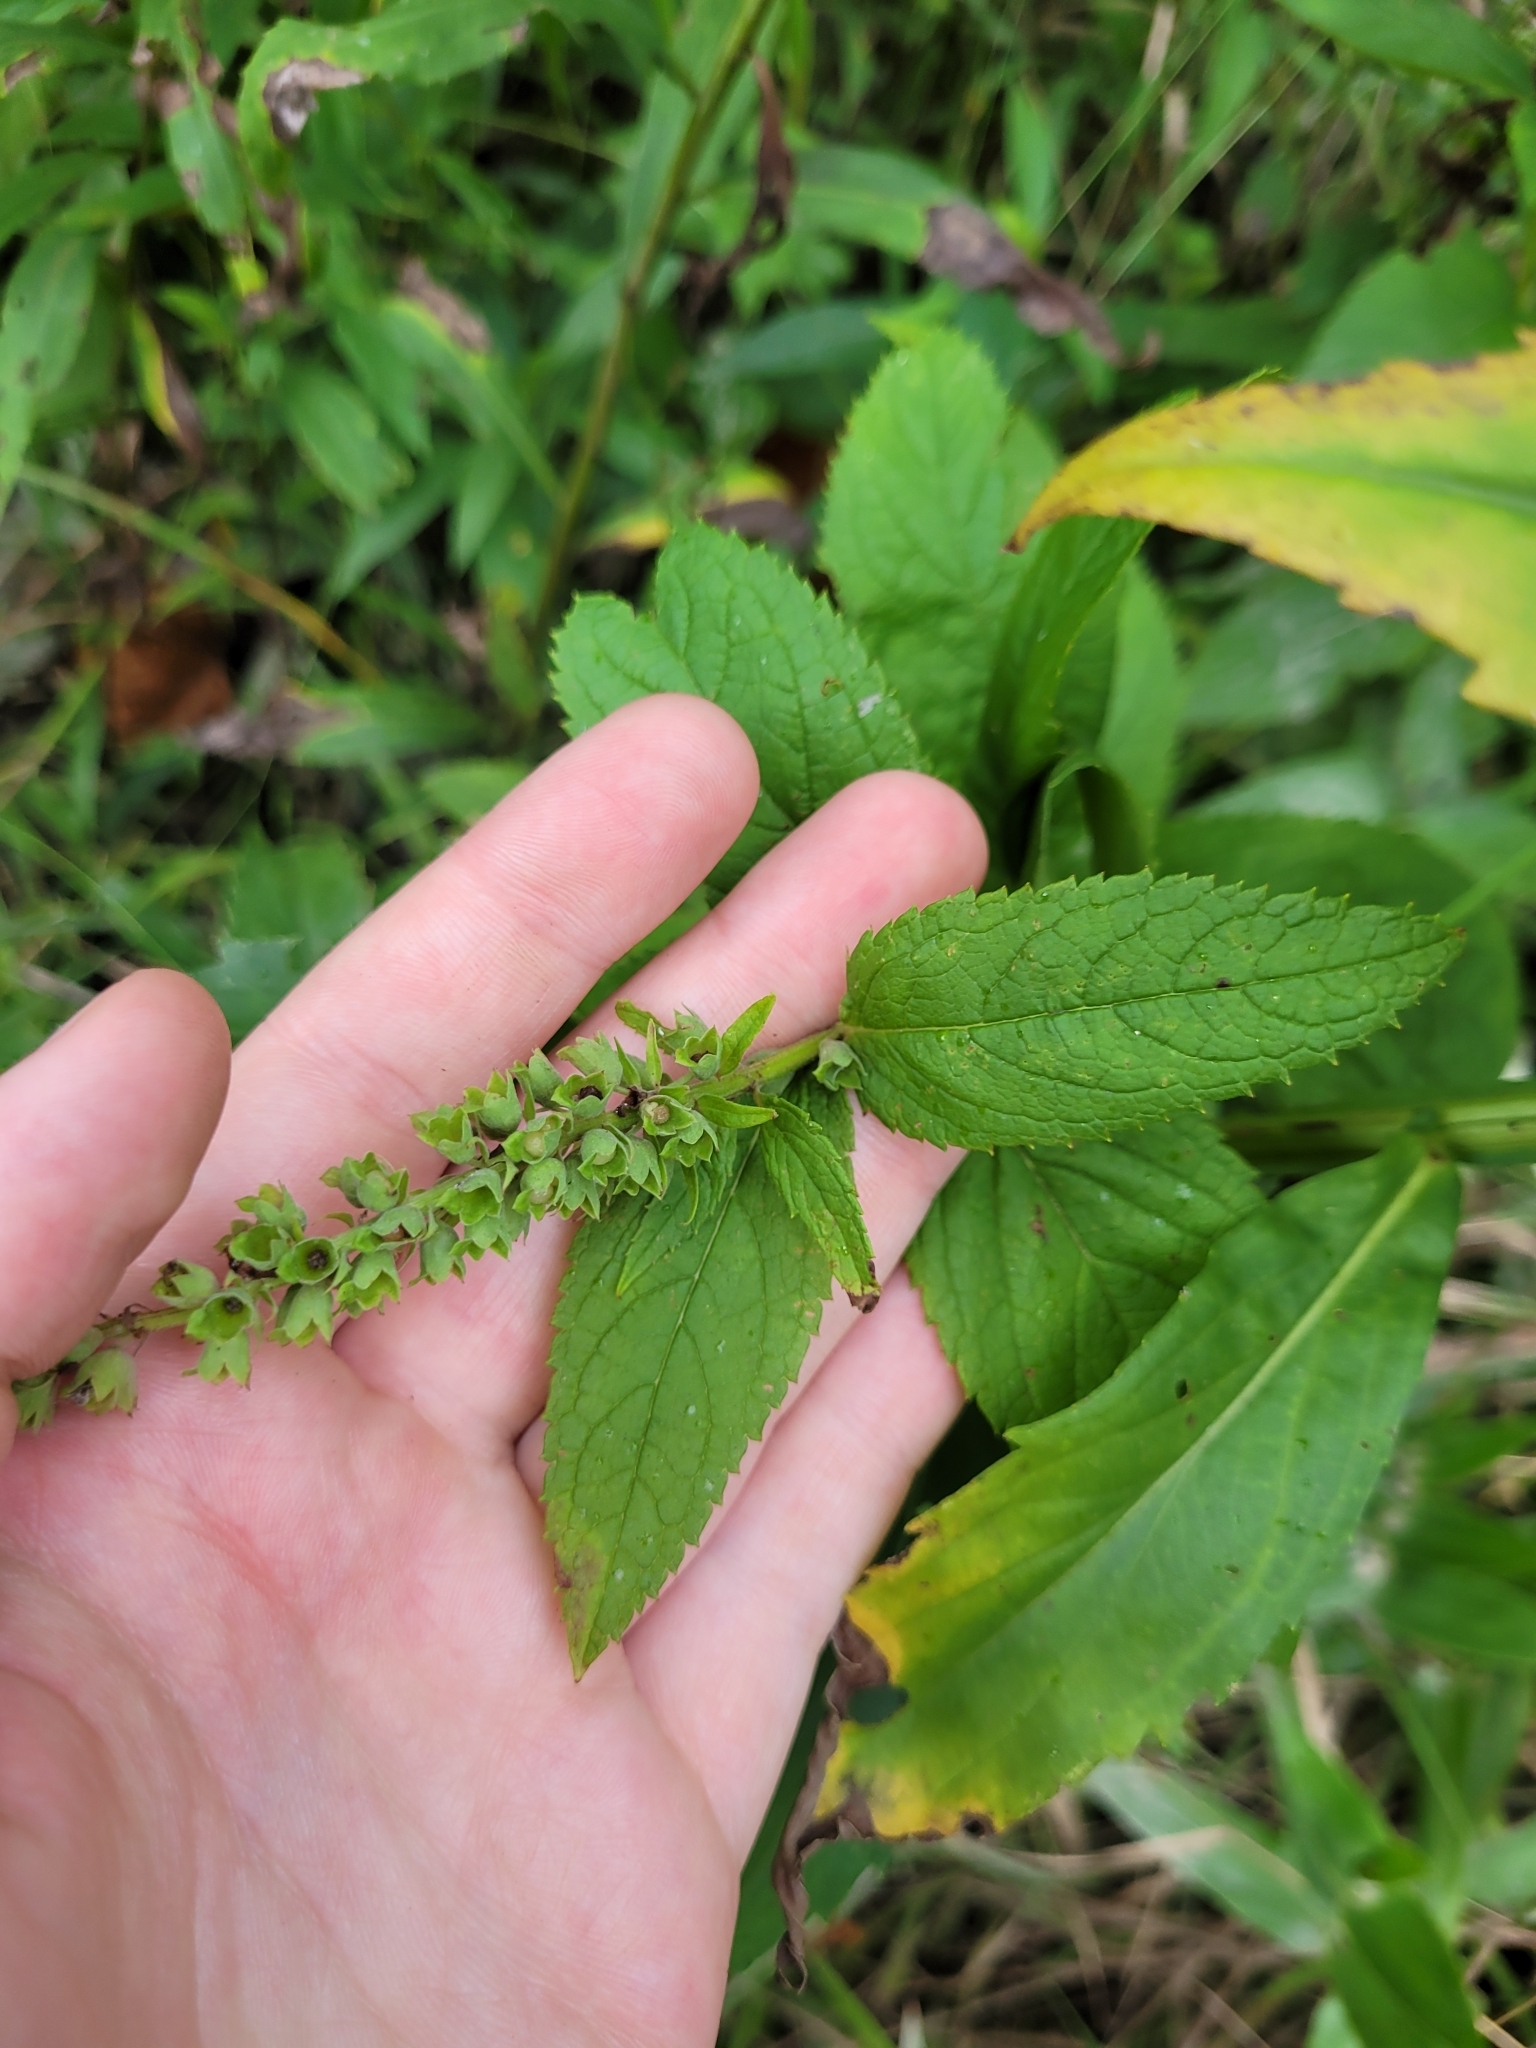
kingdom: Plantae
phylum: Tracheophyta
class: Magnoliopsida
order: Lamiales
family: Lamiaceae
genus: Teucrium
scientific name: Teucrium canadense
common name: American germander
